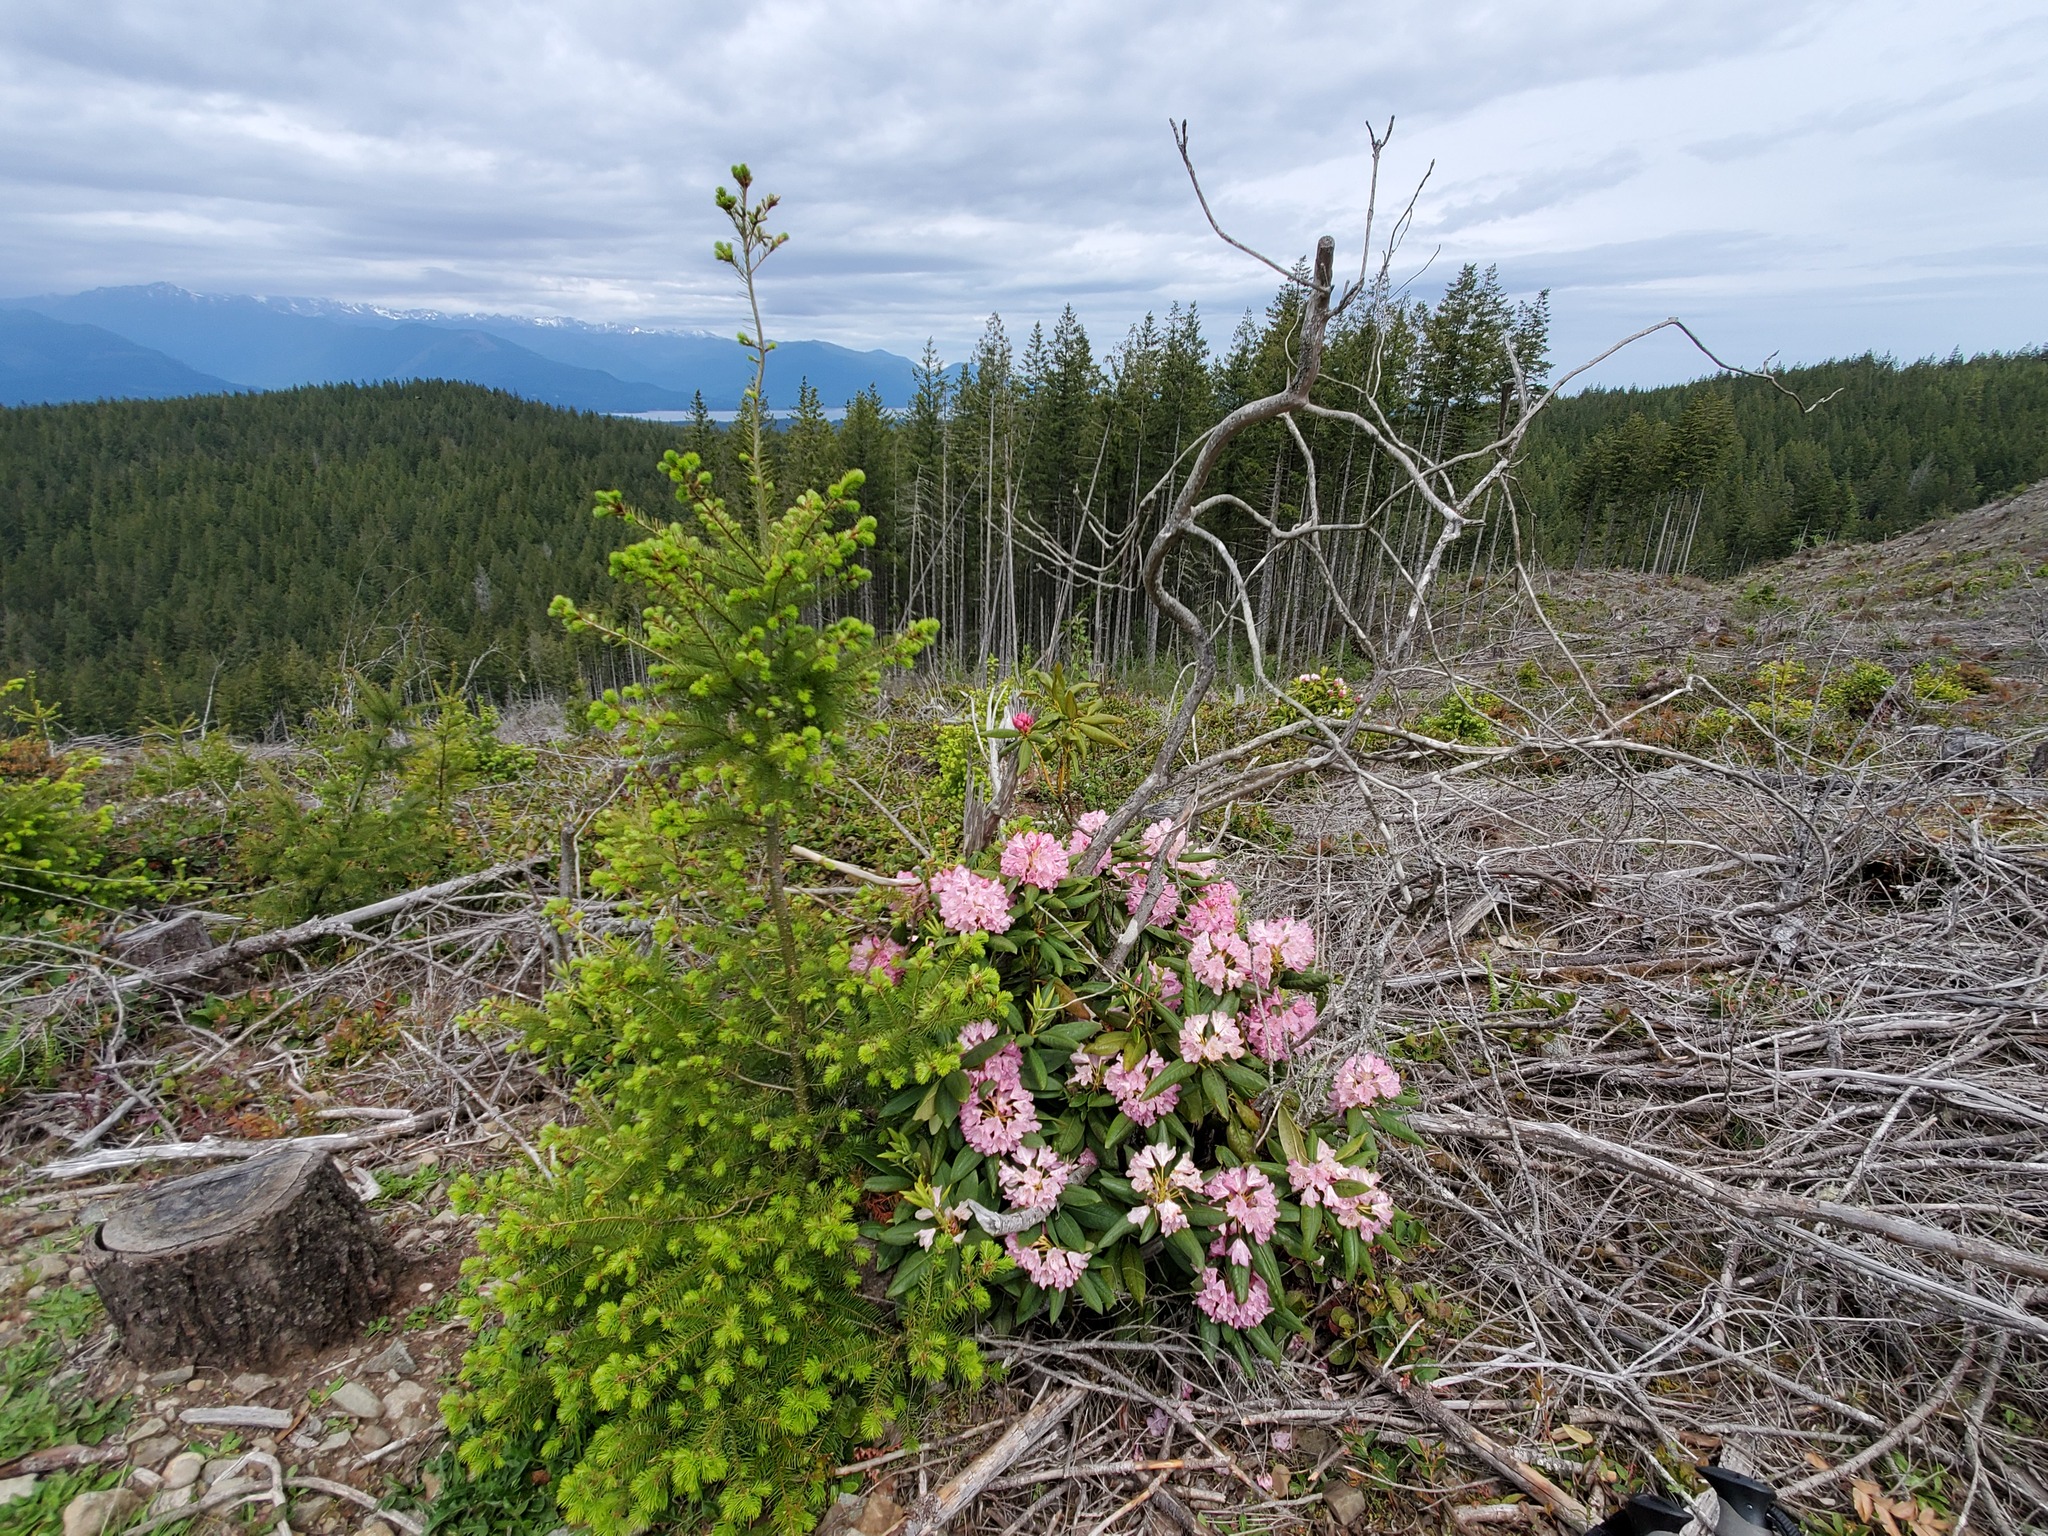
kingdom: Plantae
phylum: Tracheophyta
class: Magnoliopsida
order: Ericales
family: Ericaceae
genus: Rhododendron
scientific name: Rhododendron macrophyllum
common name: California rose bay
